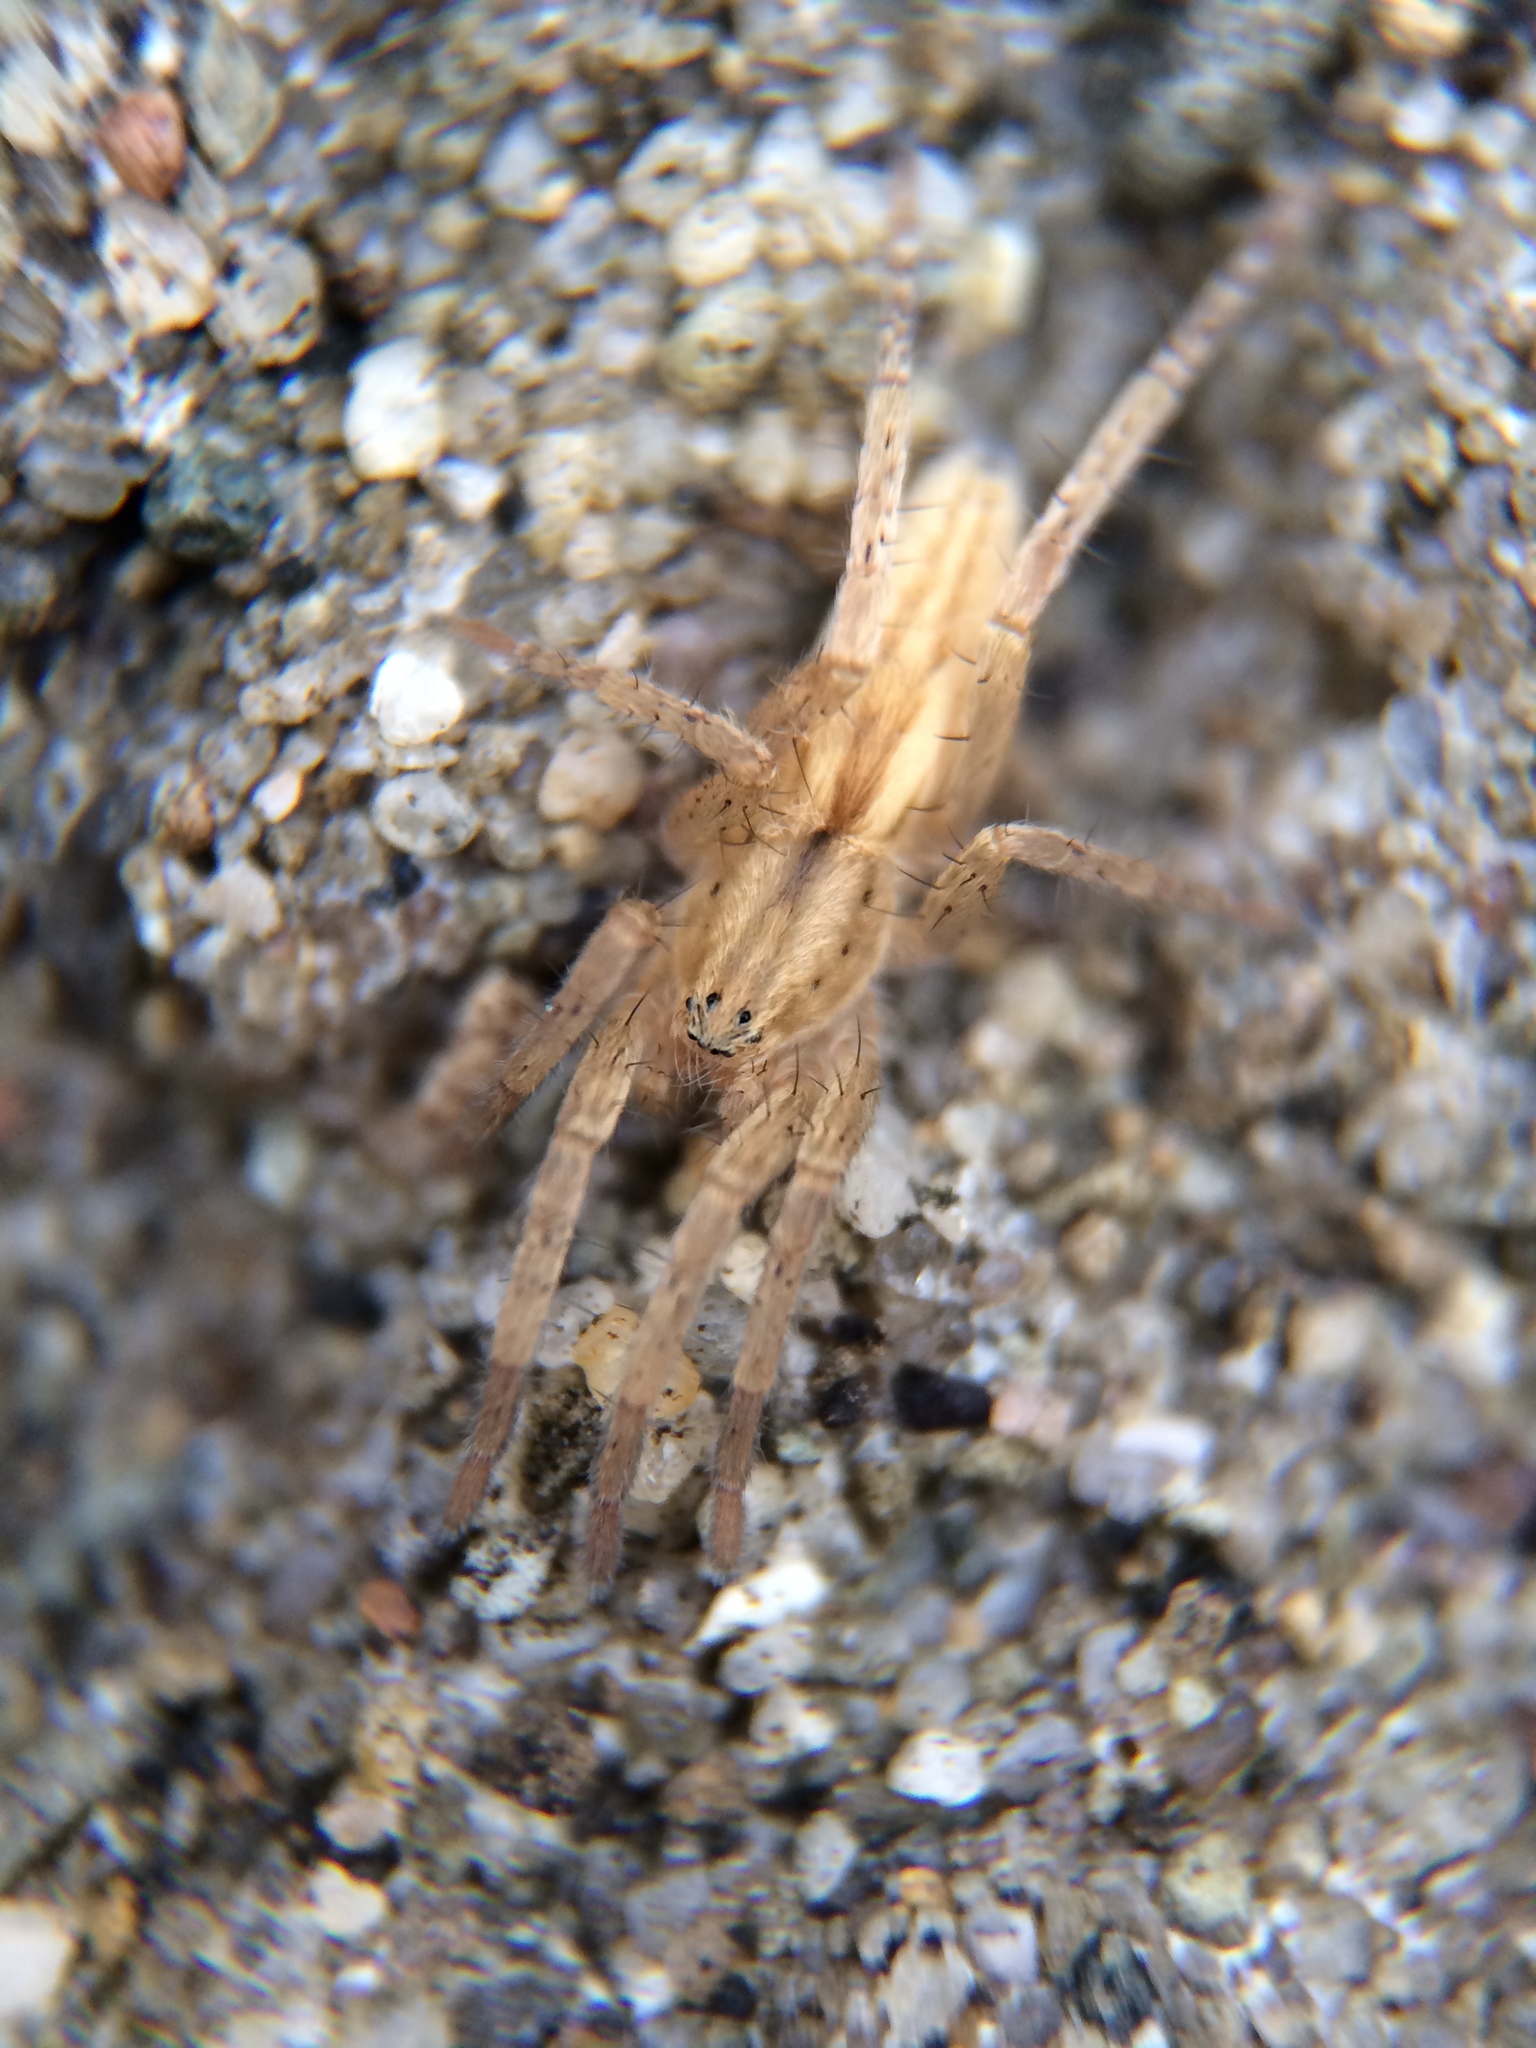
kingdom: Animalia
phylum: Arthropoda
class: Arachnida
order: Araneae
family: Anyphaenidae
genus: Arachosia
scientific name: Arachosia cubana
